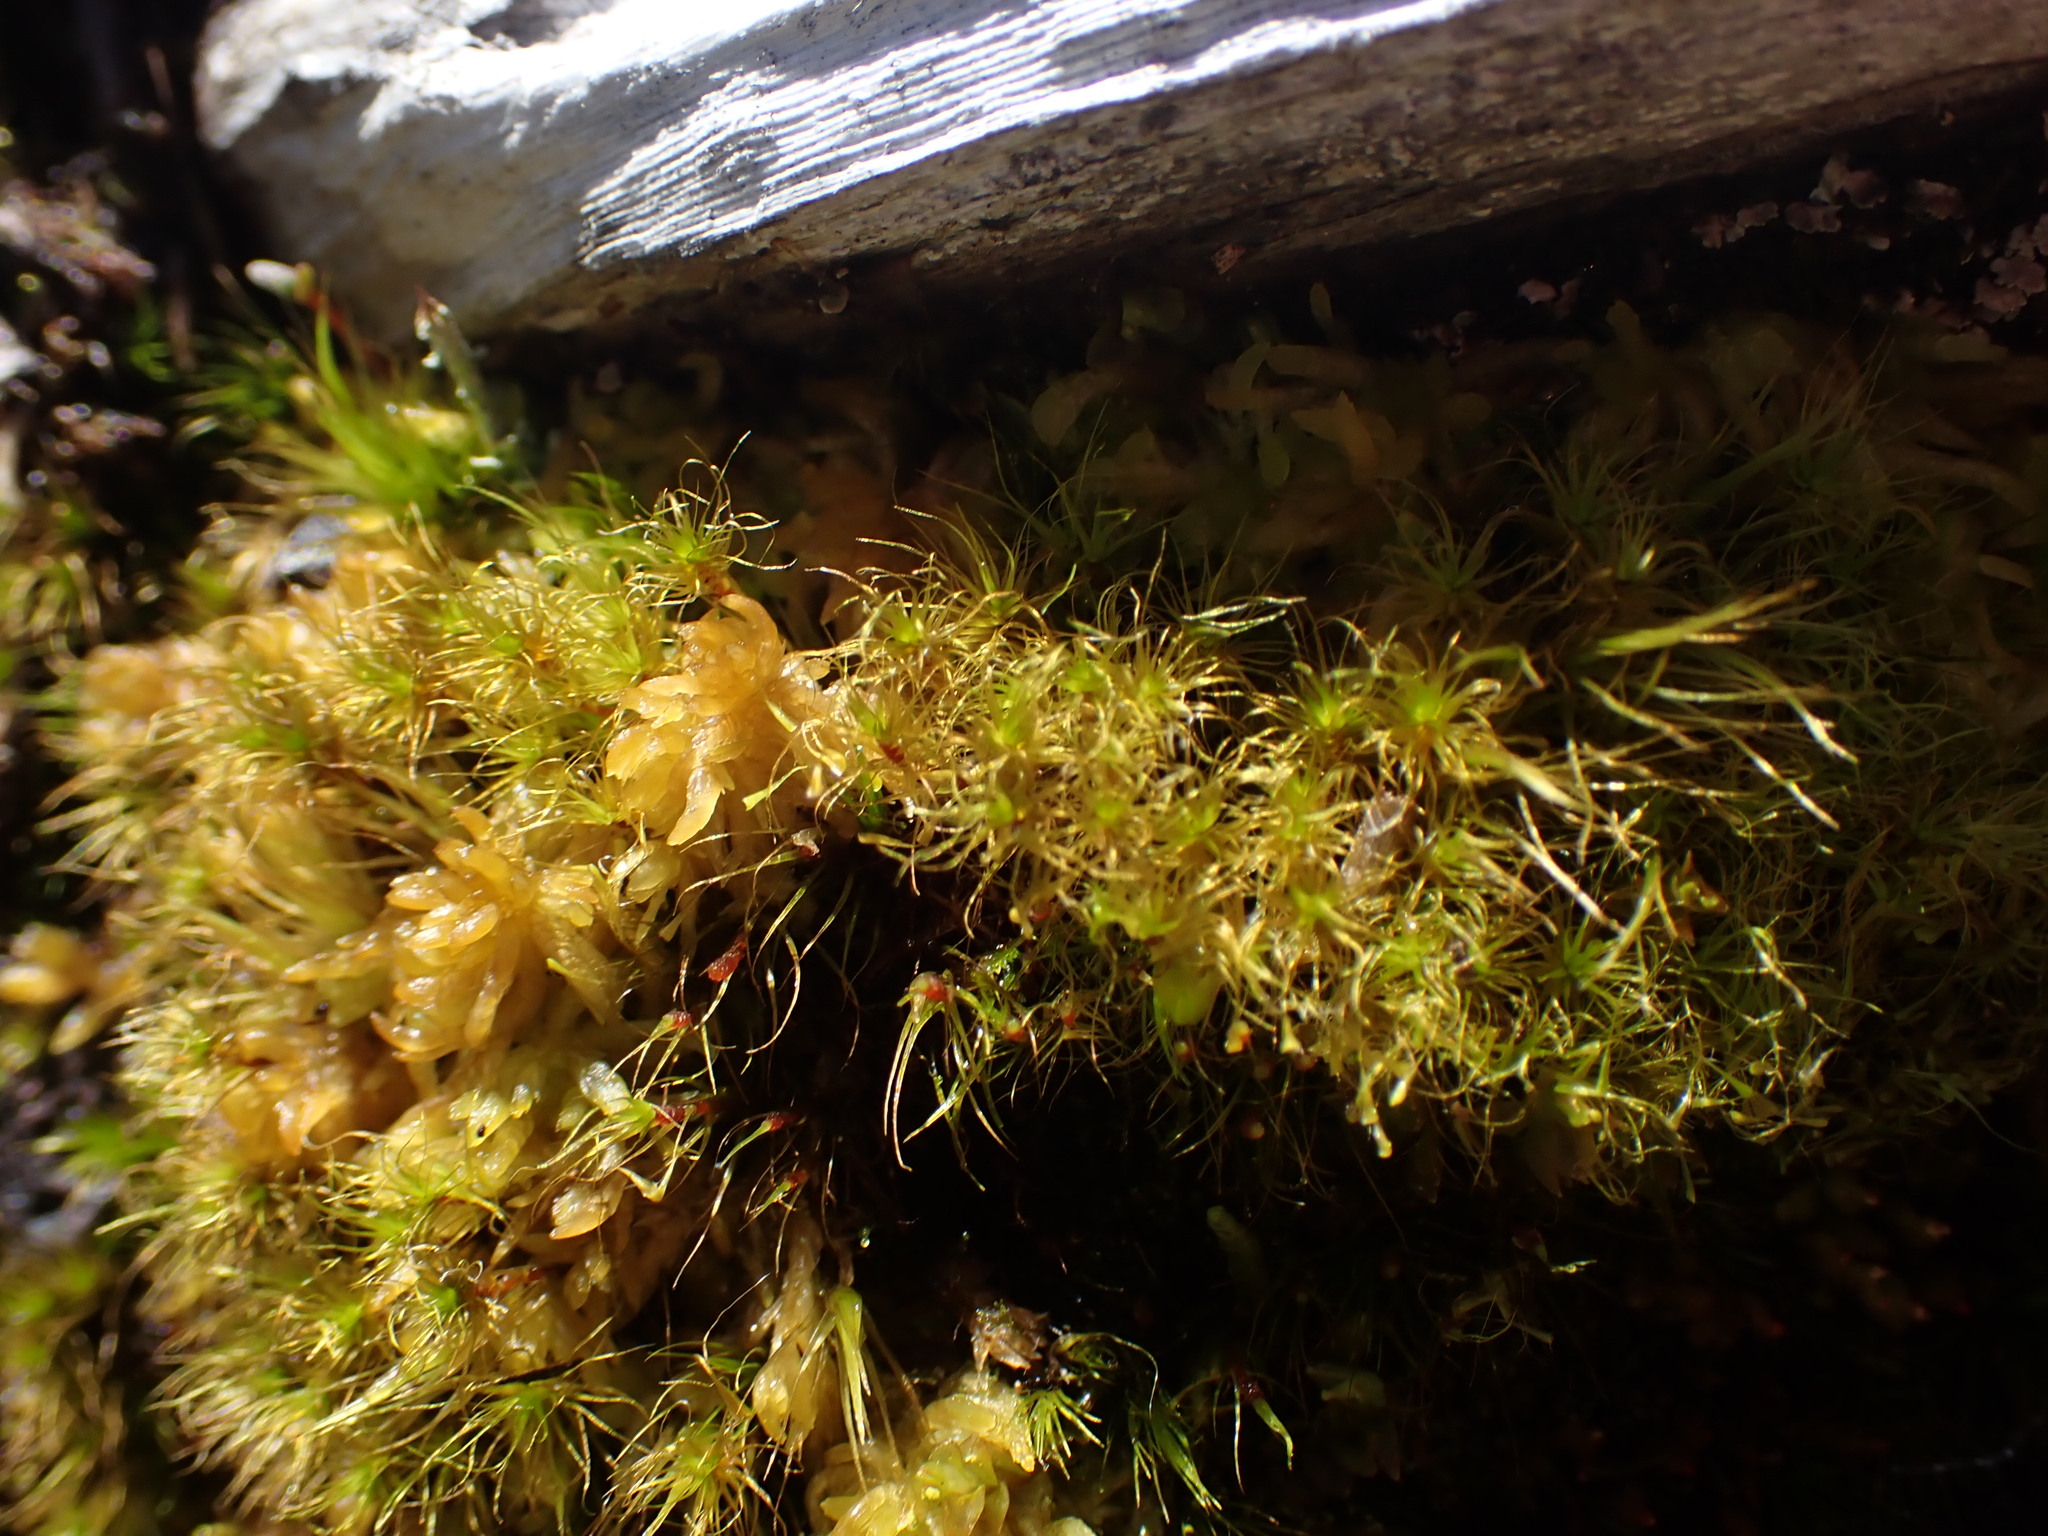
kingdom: Plantae
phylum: Bryophyta
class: Bryopsida
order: Dicranales
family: Leucobryaceae
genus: Dicranodontium
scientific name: Dicranodontium denudatum
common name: Beaked bow moss
